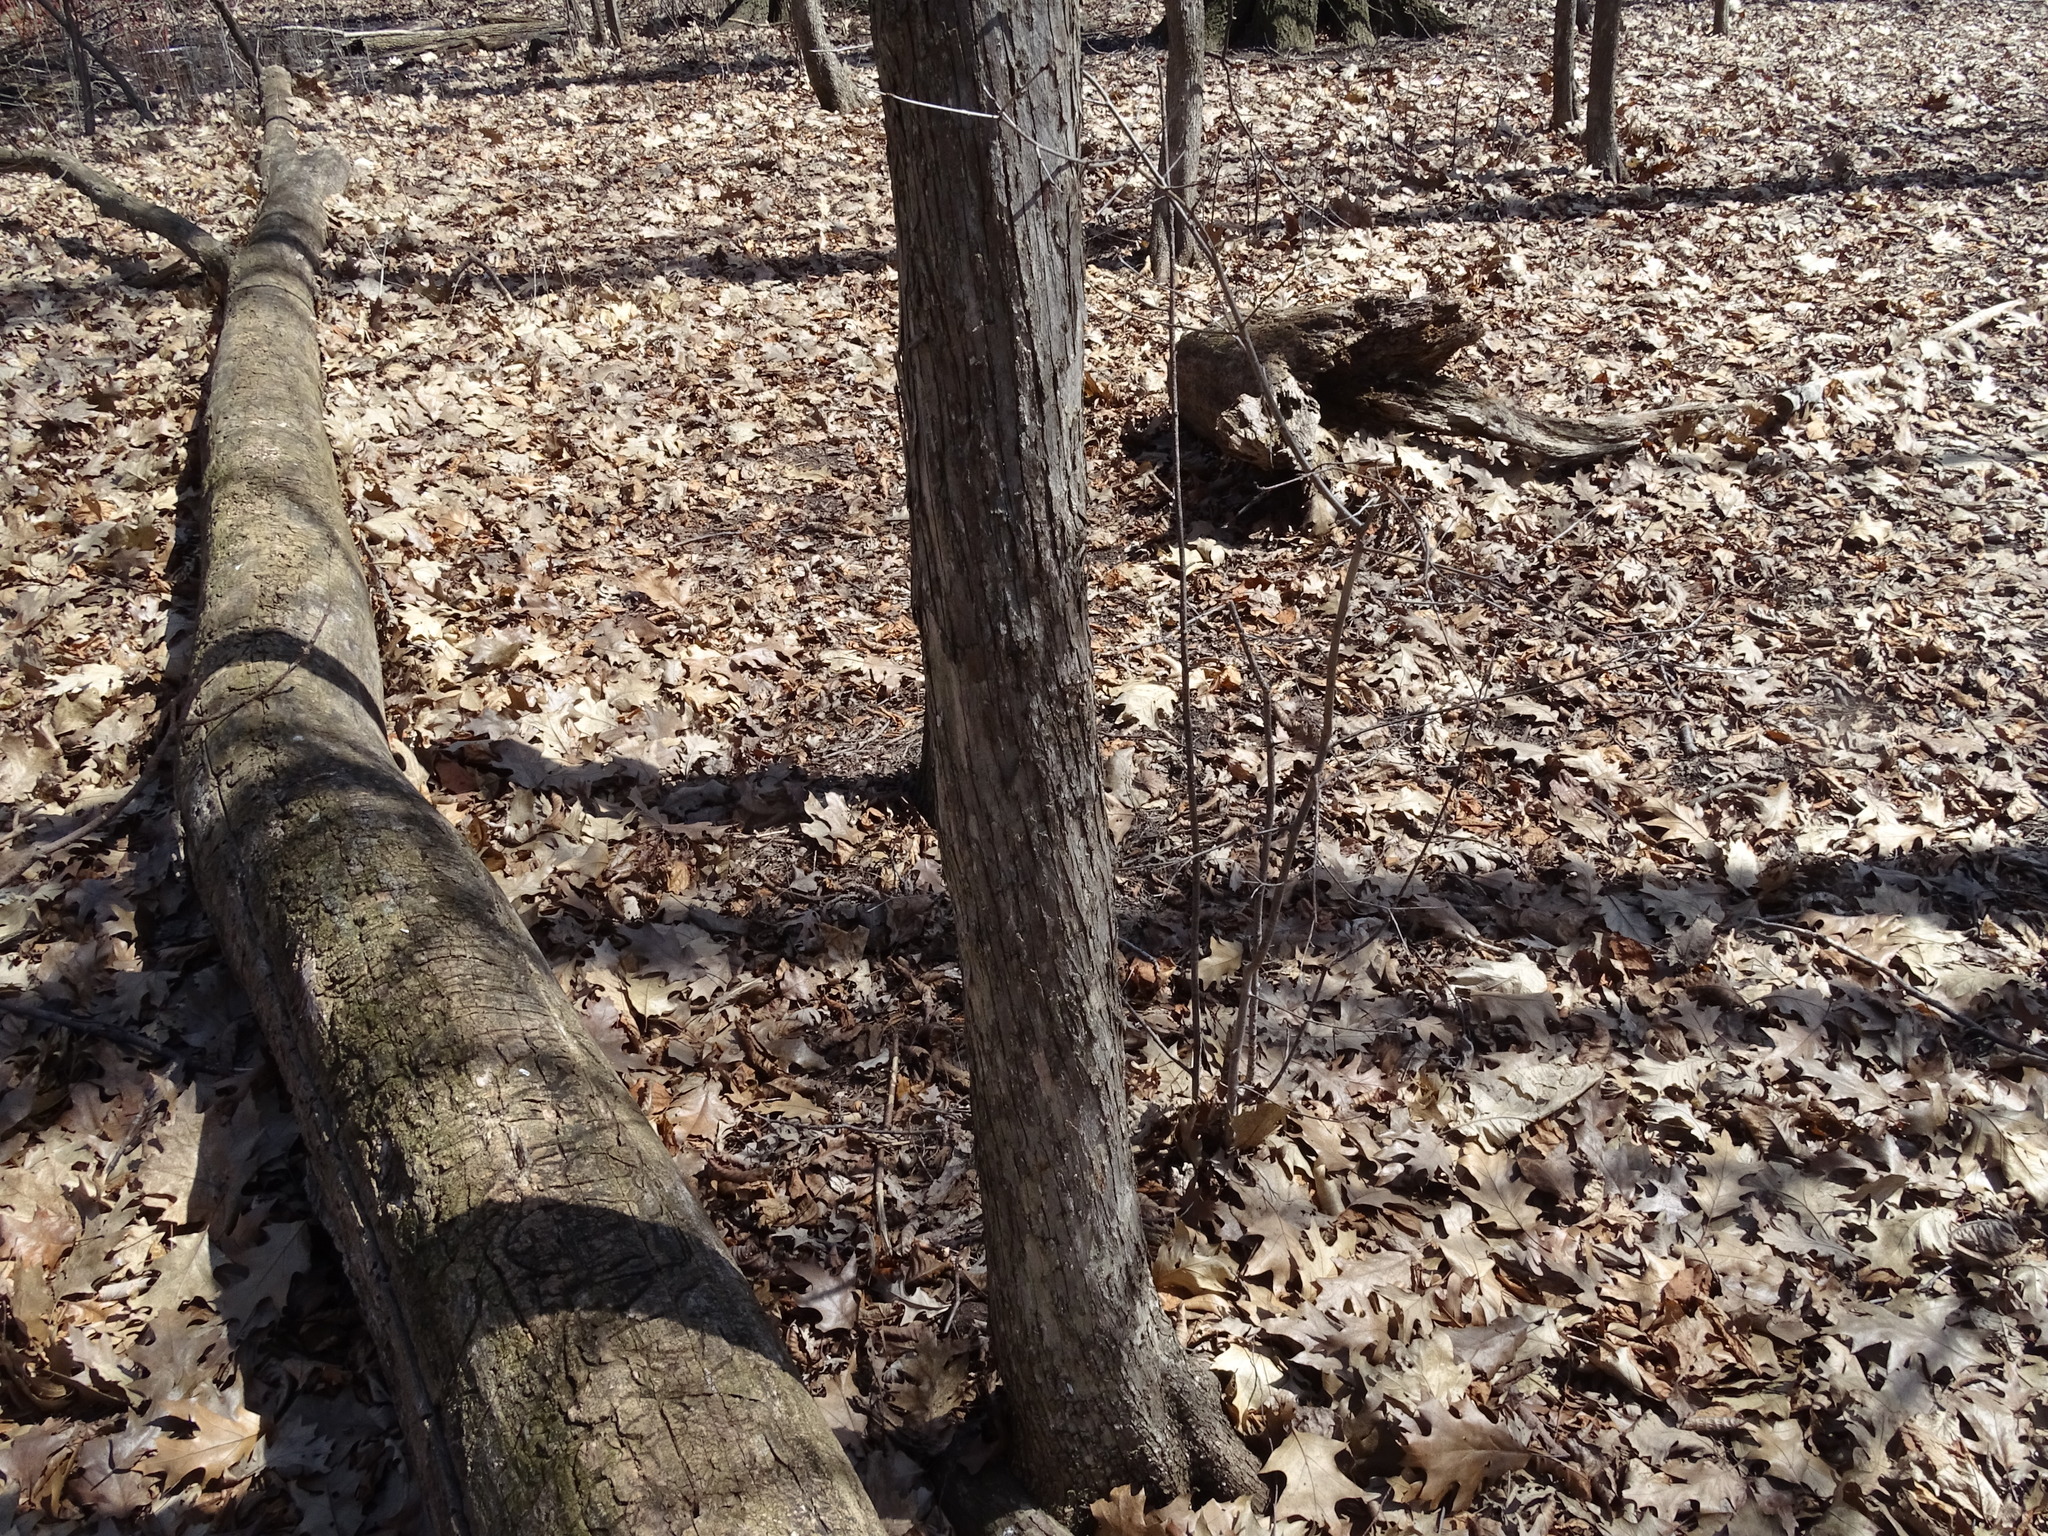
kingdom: Plantae
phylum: Tracheophyta
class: Magnoliopsida
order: Fagales
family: Betulaceae
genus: Ostrya
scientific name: Ostrya virginiana
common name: Ironwood
